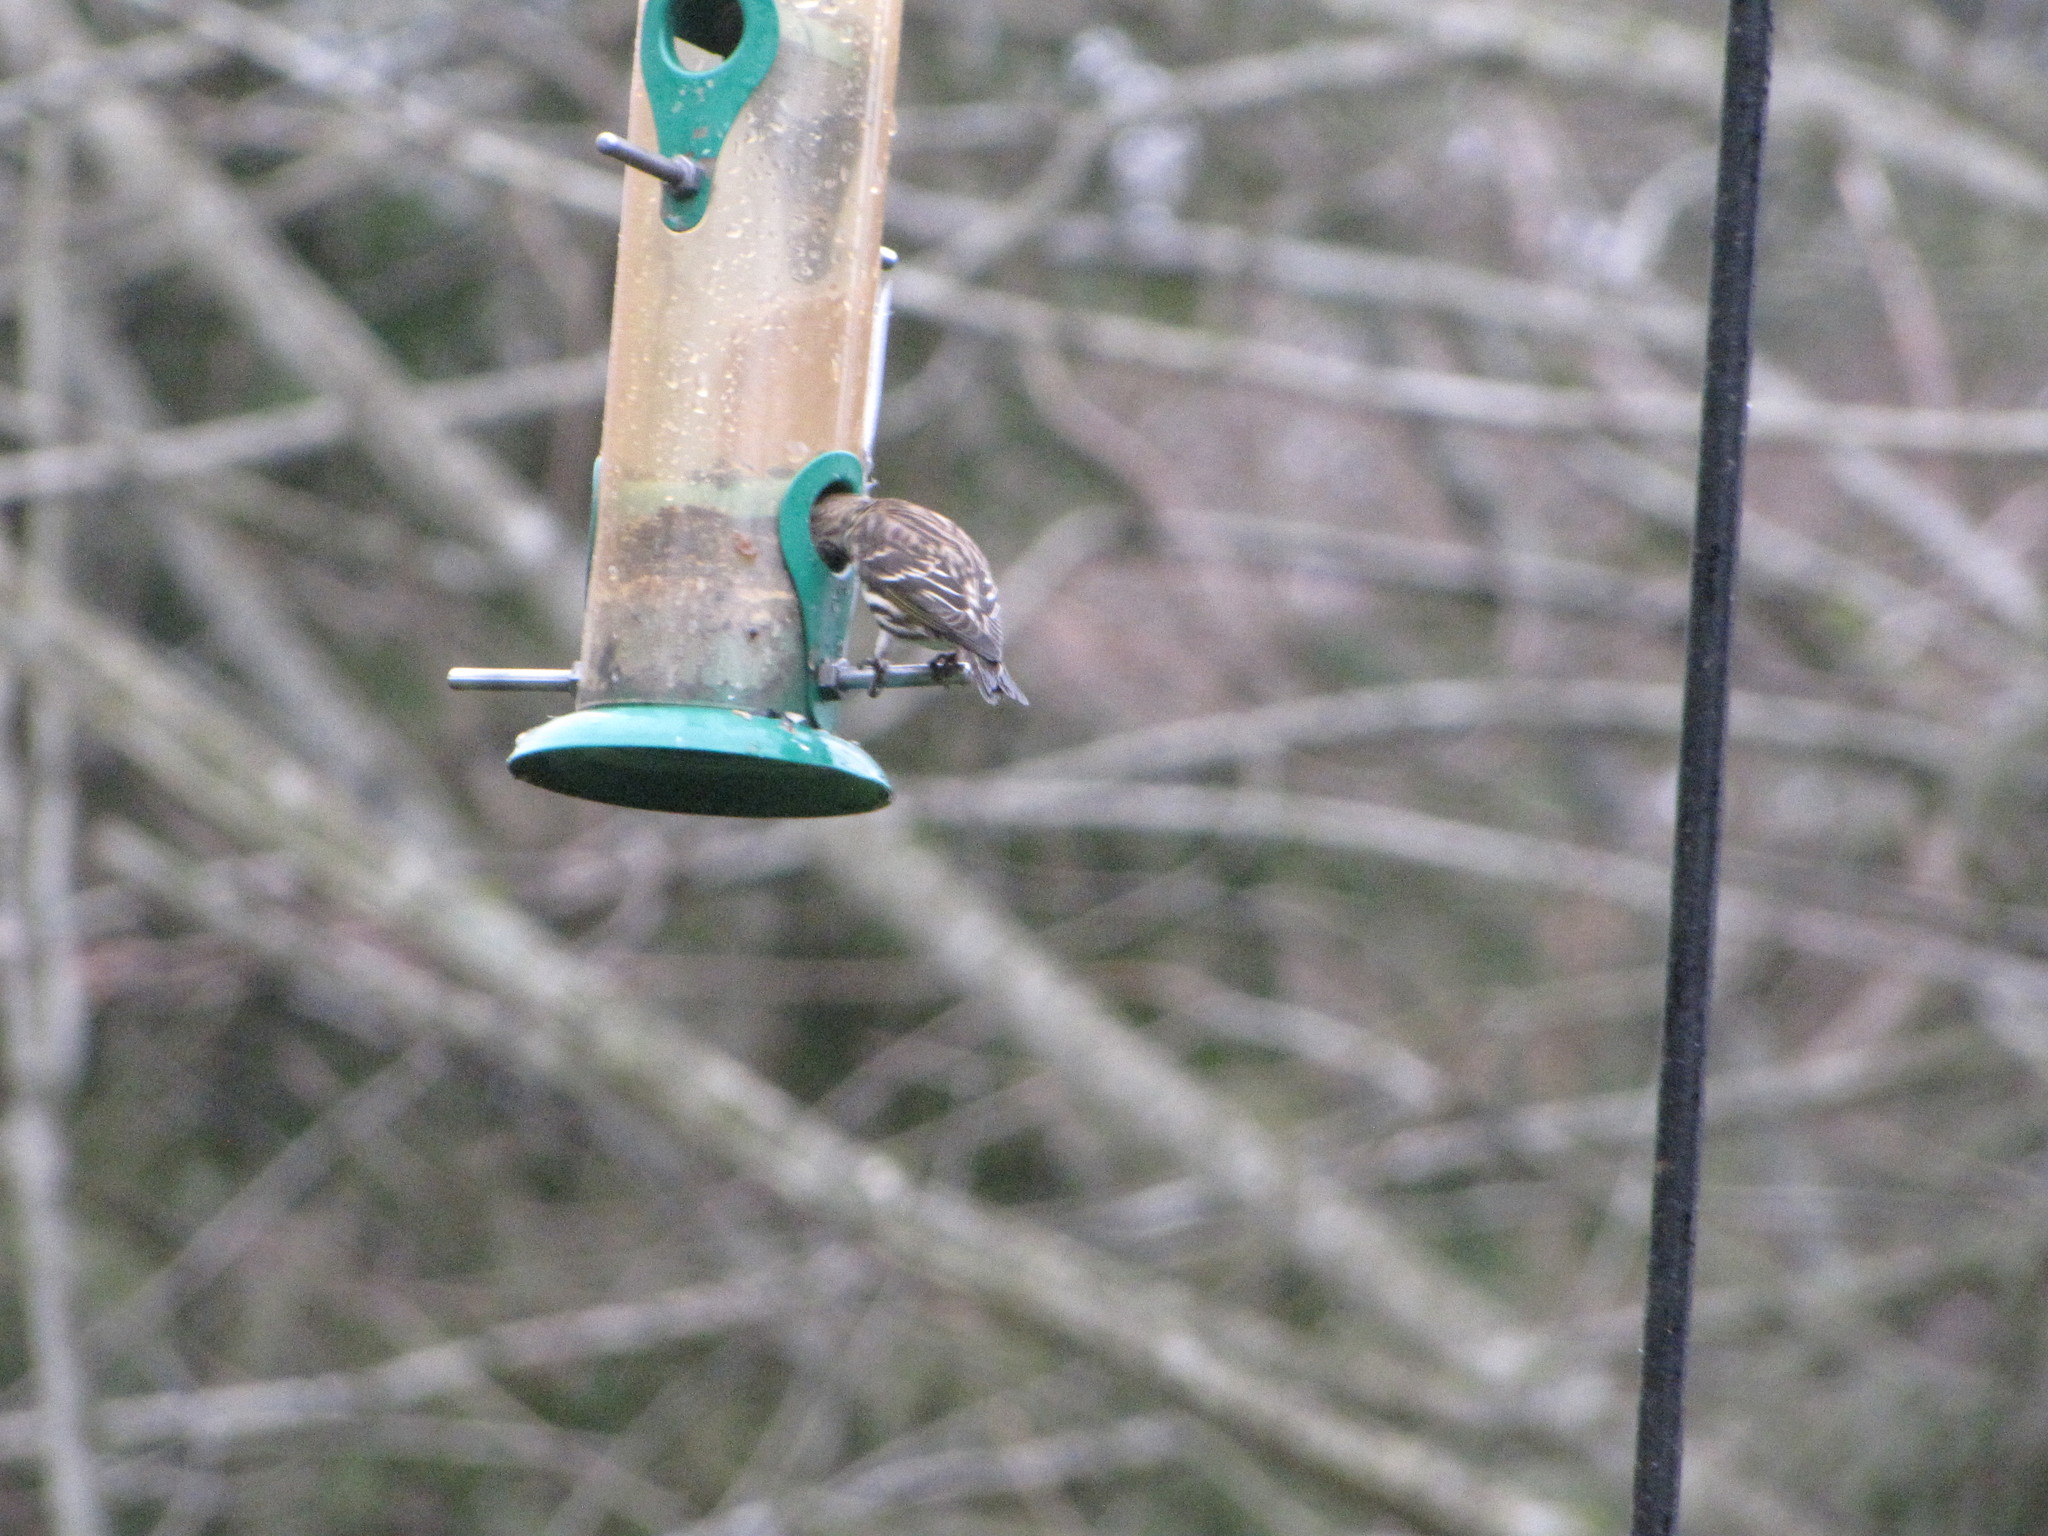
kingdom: Animalia
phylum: Chordata
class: Aves
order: Passeriformes
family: Fringillidae
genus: Spinus
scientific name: Spinus pinus
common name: Pine siskin
